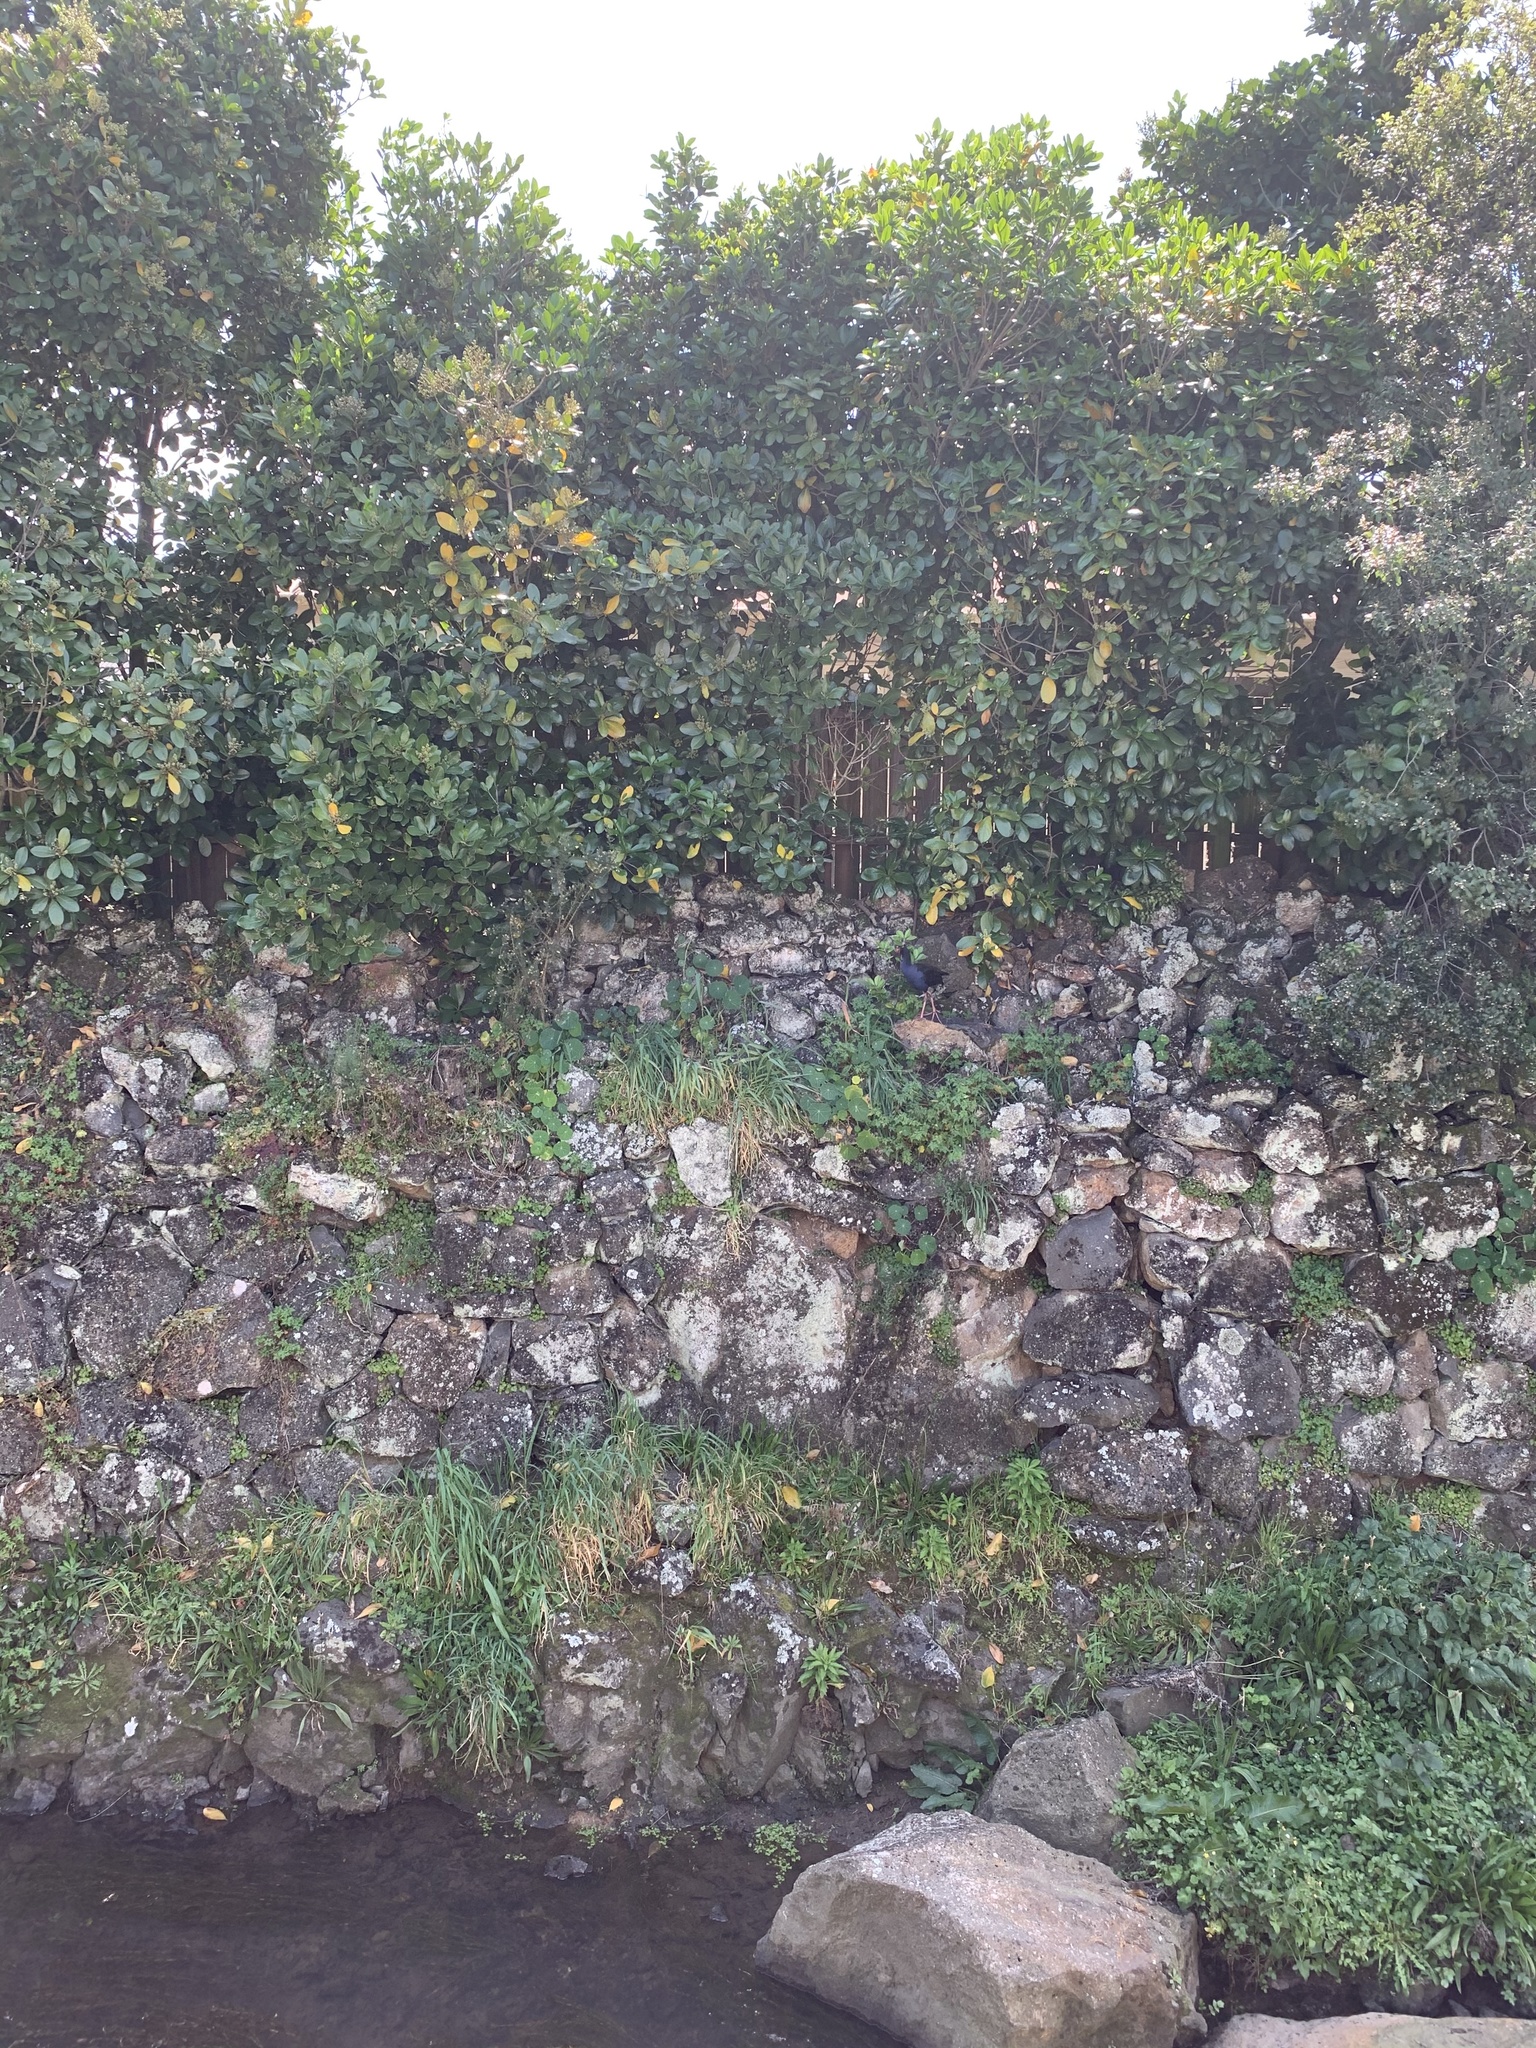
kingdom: Animalia
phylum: Chordata
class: Aves
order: Gruiformes
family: Rallidae
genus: Porphyrio
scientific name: Porphyrio melanotus
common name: Australasian swamphen
